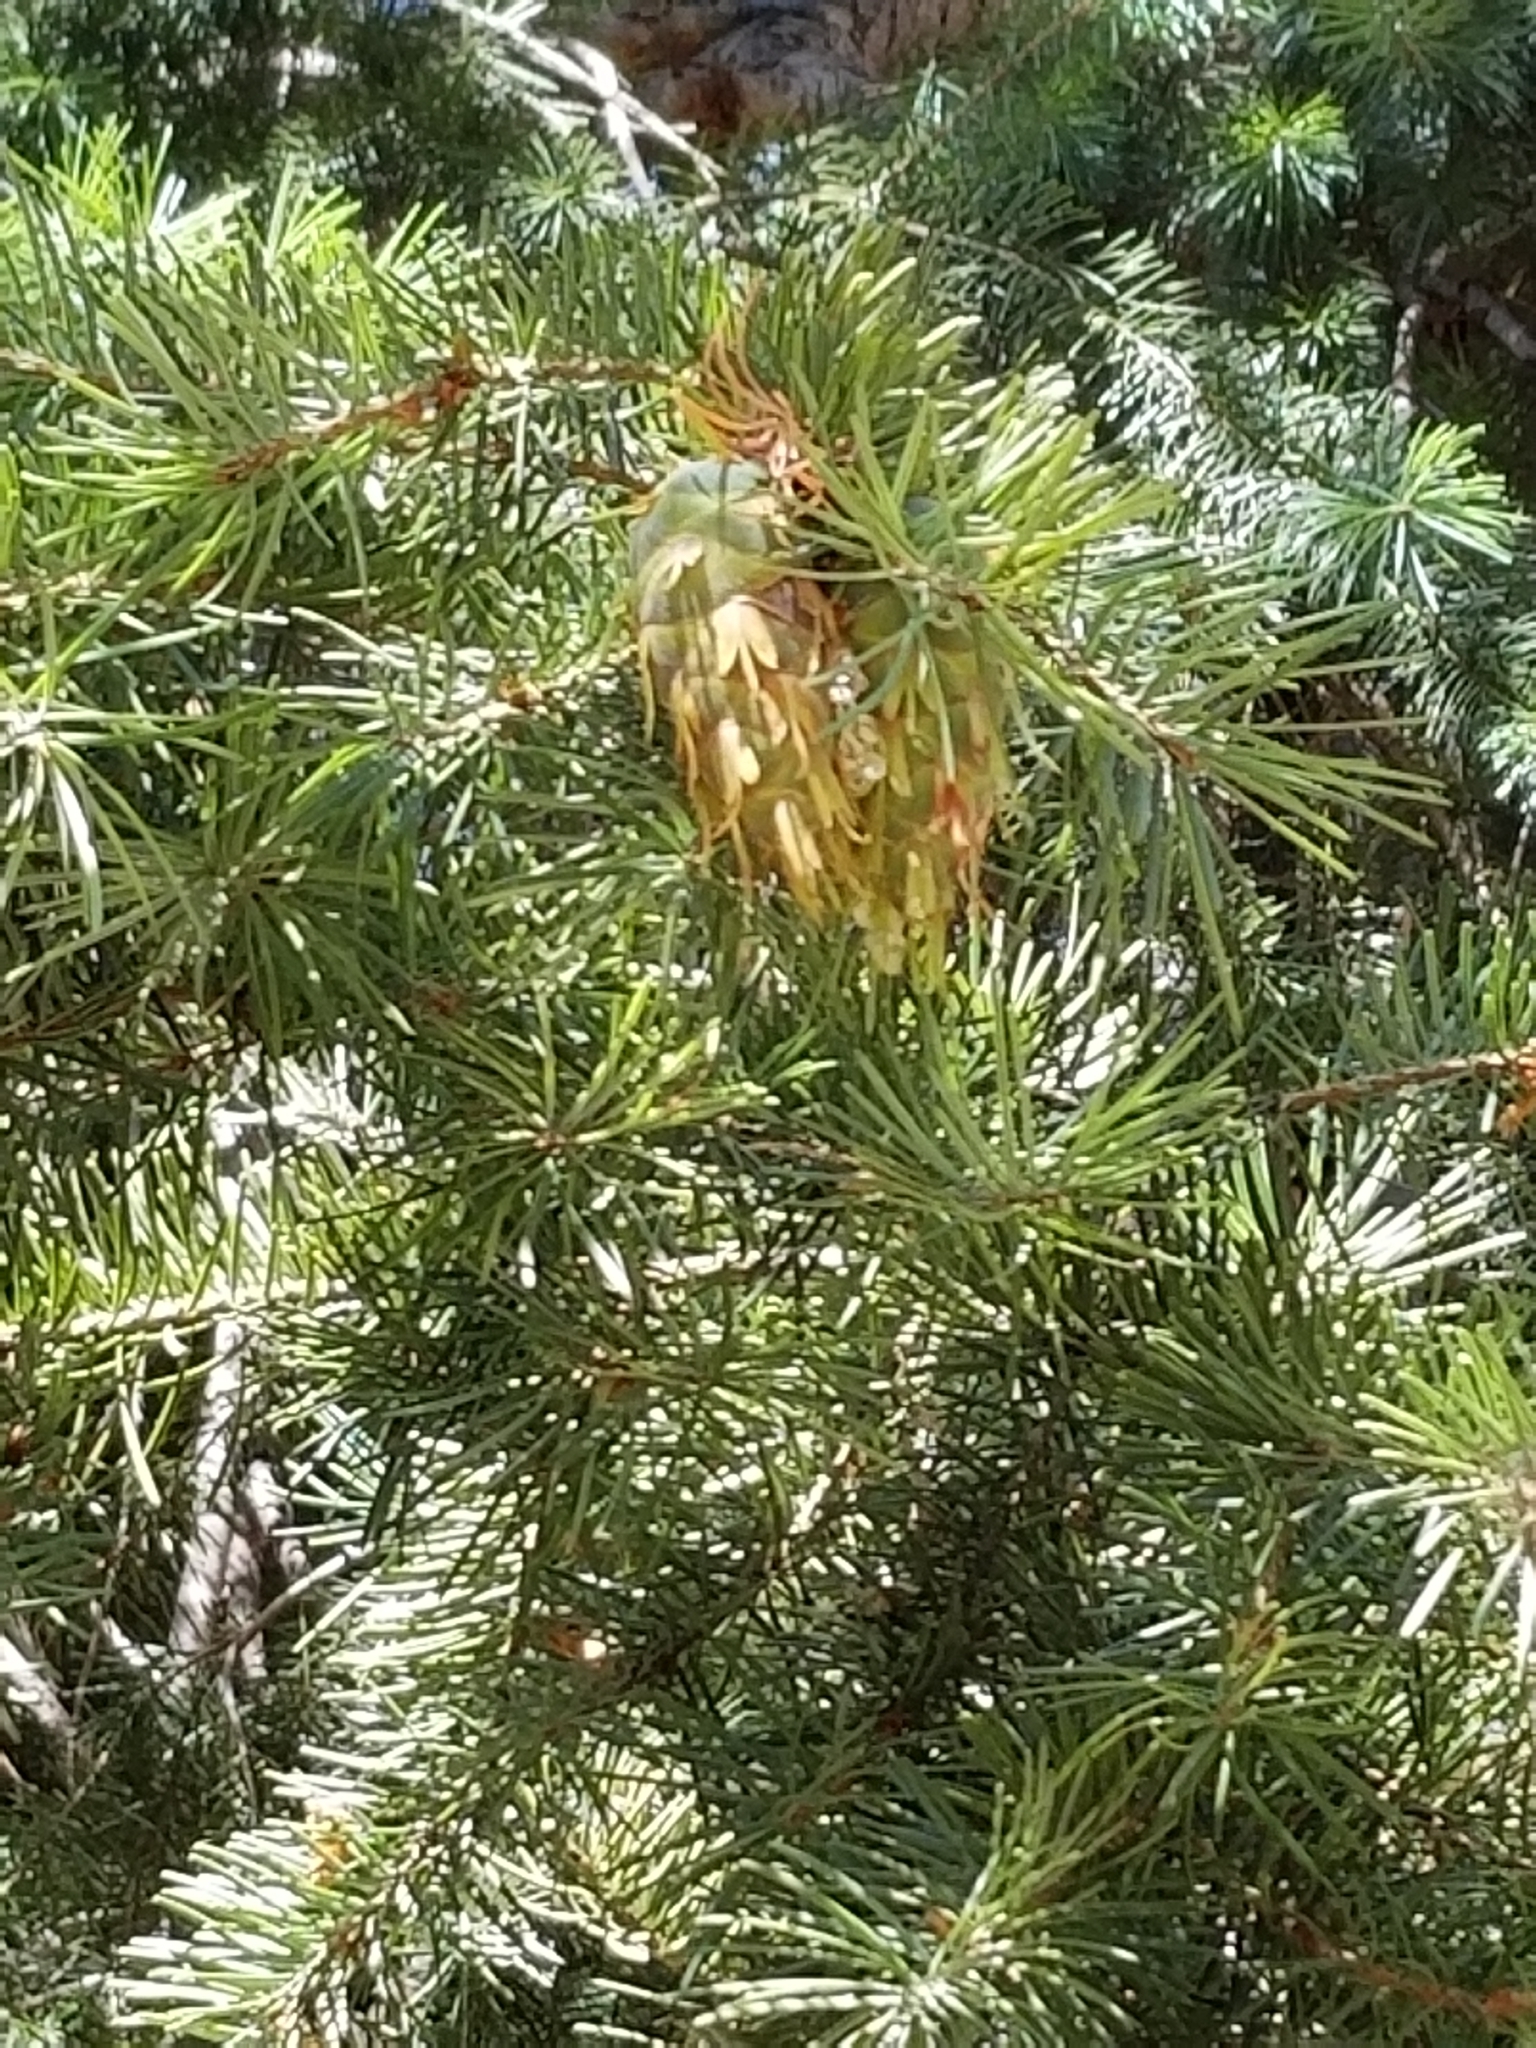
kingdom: Plantae
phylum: Tracheophyta
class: Pinopsida
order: Pinales
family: Pinaceae
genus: Pseudotsuga
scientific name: Pseudotsuga menziesii
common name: Douglas fir
